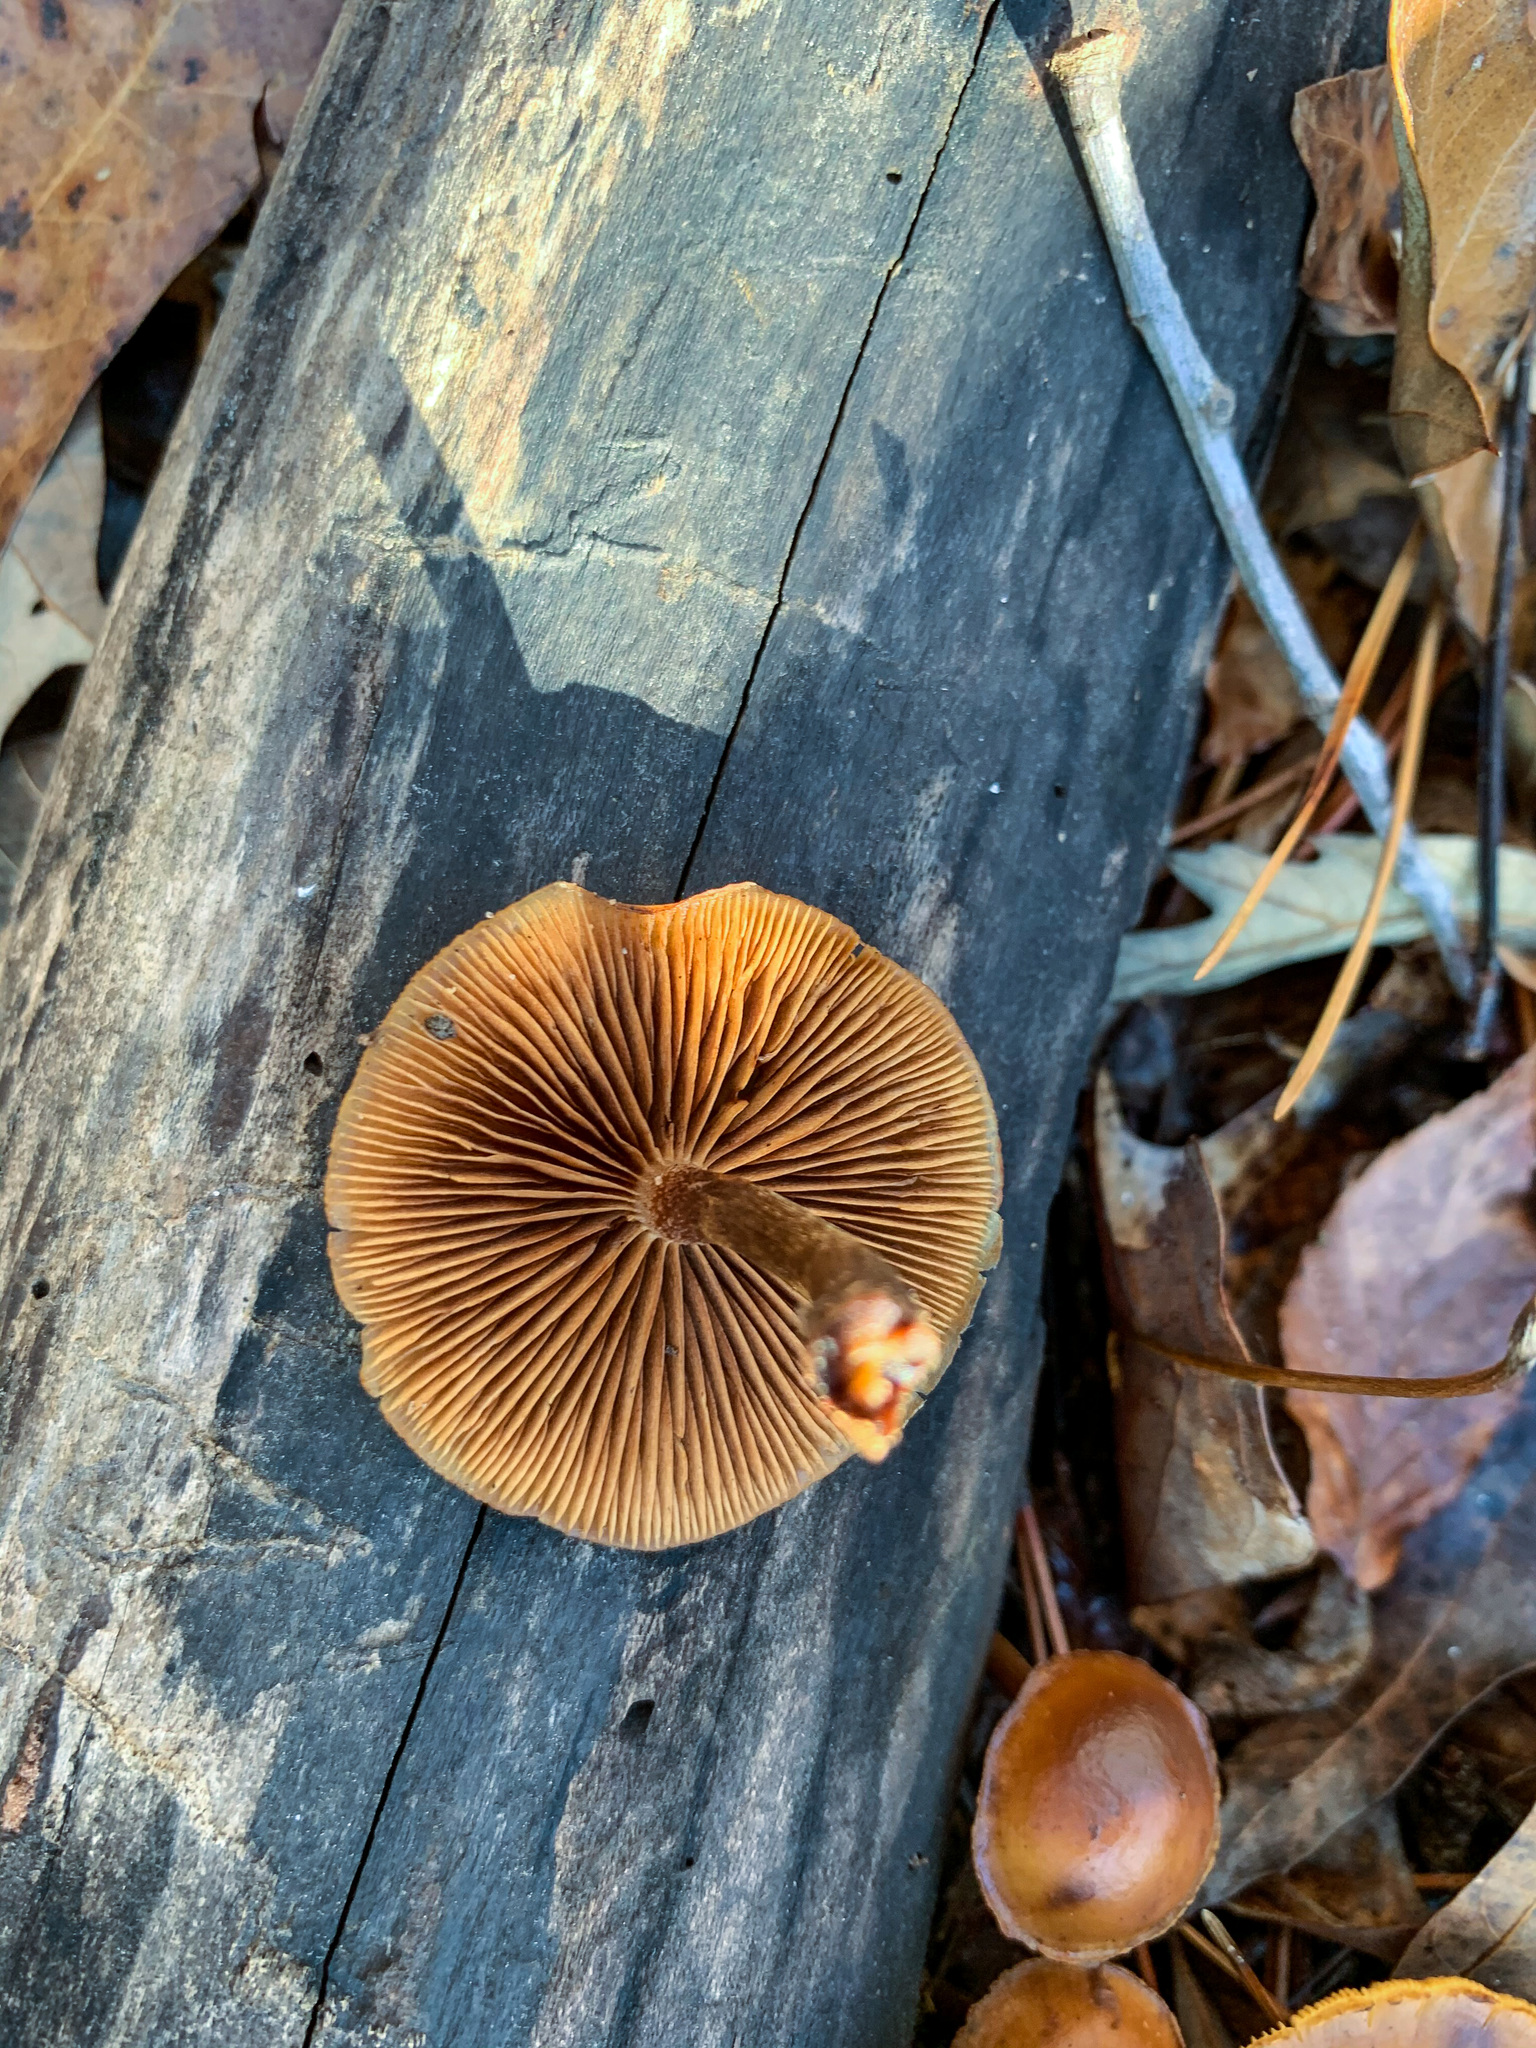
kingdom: Fungi
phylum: Basidiomycota
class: Agaricomycetes
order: Agaricales
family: Hymenogastraceae
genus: Galerina
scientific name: Galerina marginata
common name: Funeral bell
